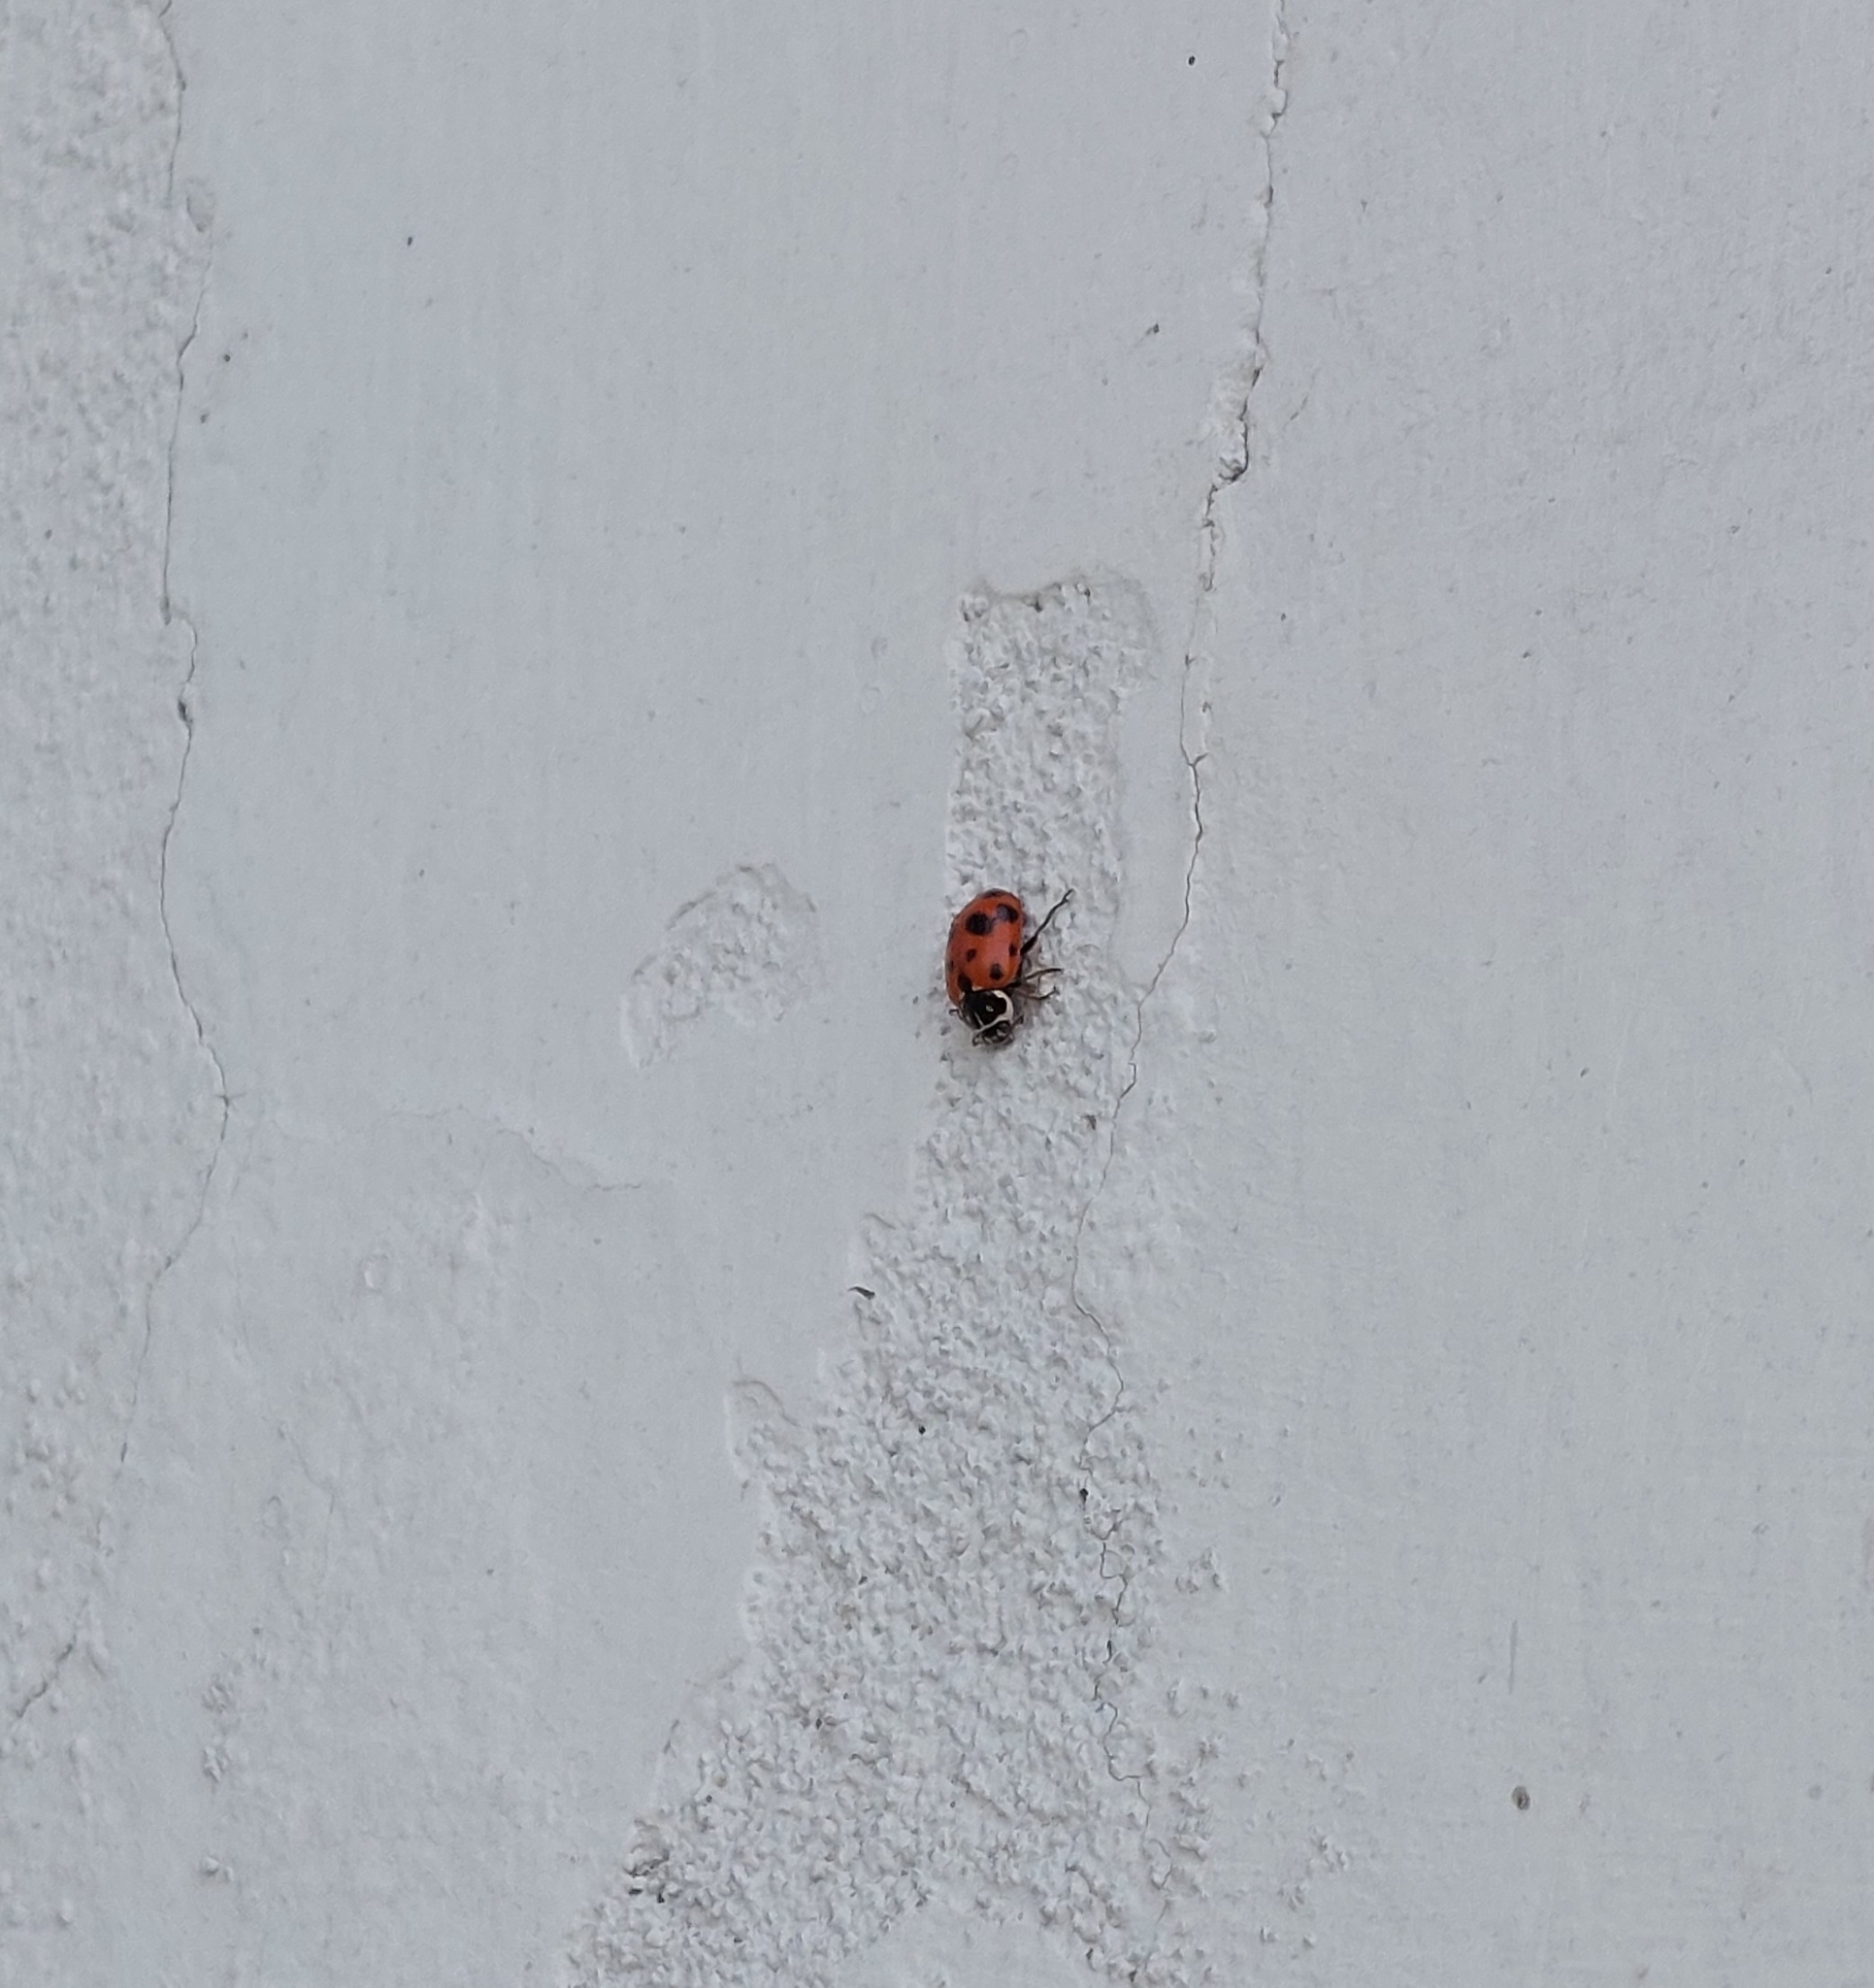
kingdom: Animalia
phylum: Arthropoda
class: Insecta
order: Coleoptera
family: Coccinellidae
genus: Hippodamia
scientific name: Hippodamia variegata
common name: Ladybird beetle
